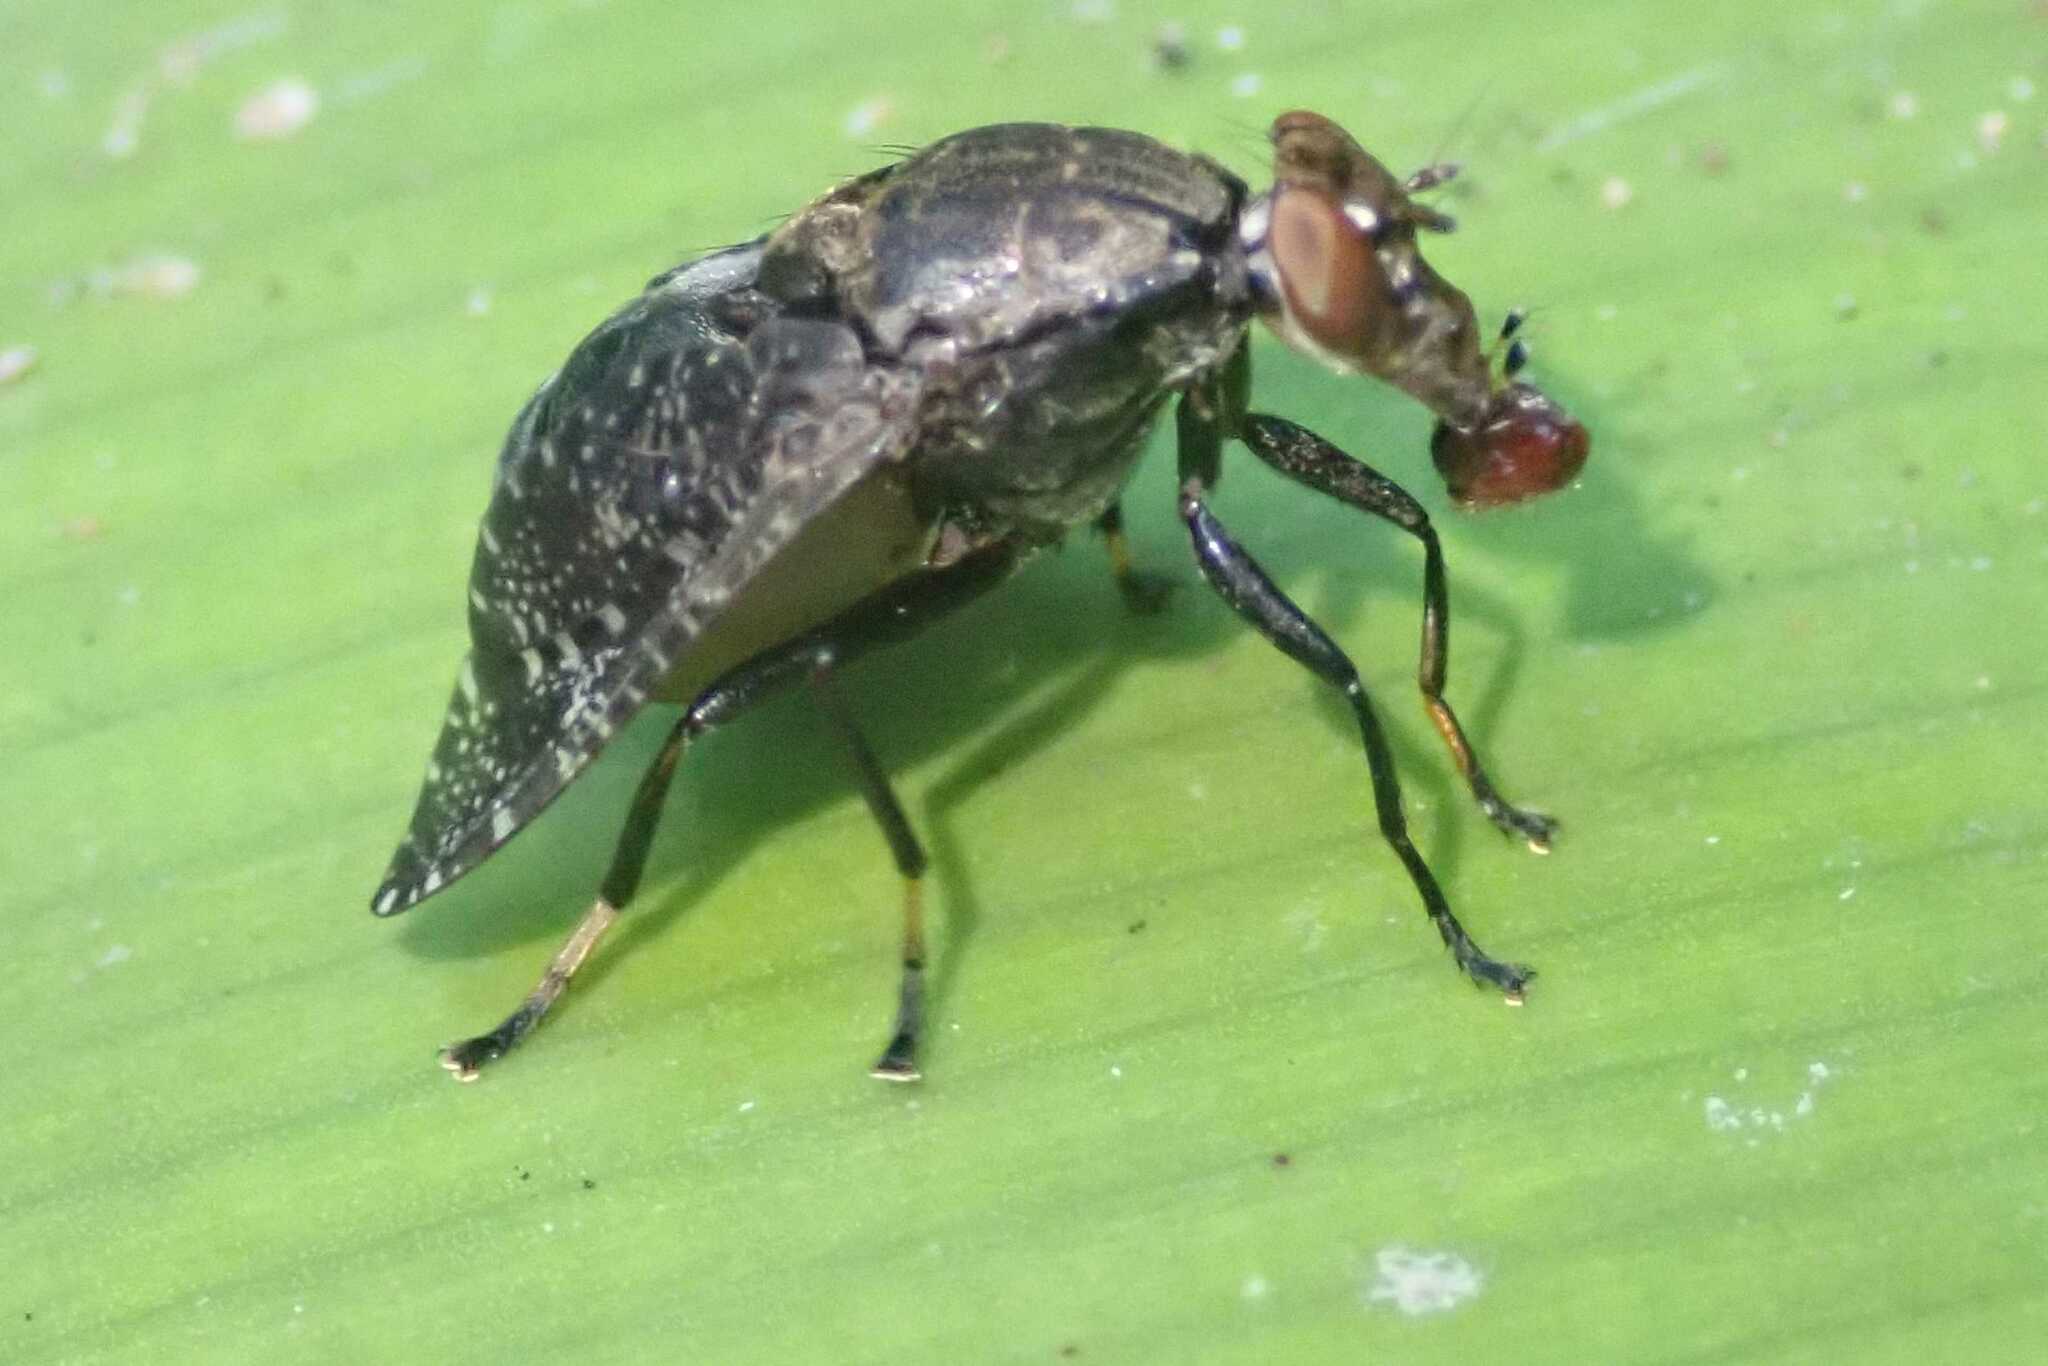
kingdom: Animalia
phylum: Arthropoda
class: Insecta
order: Diptera
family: Platystomatidae
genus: Peltacanthina
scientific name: Peltacanthina pectoralis
